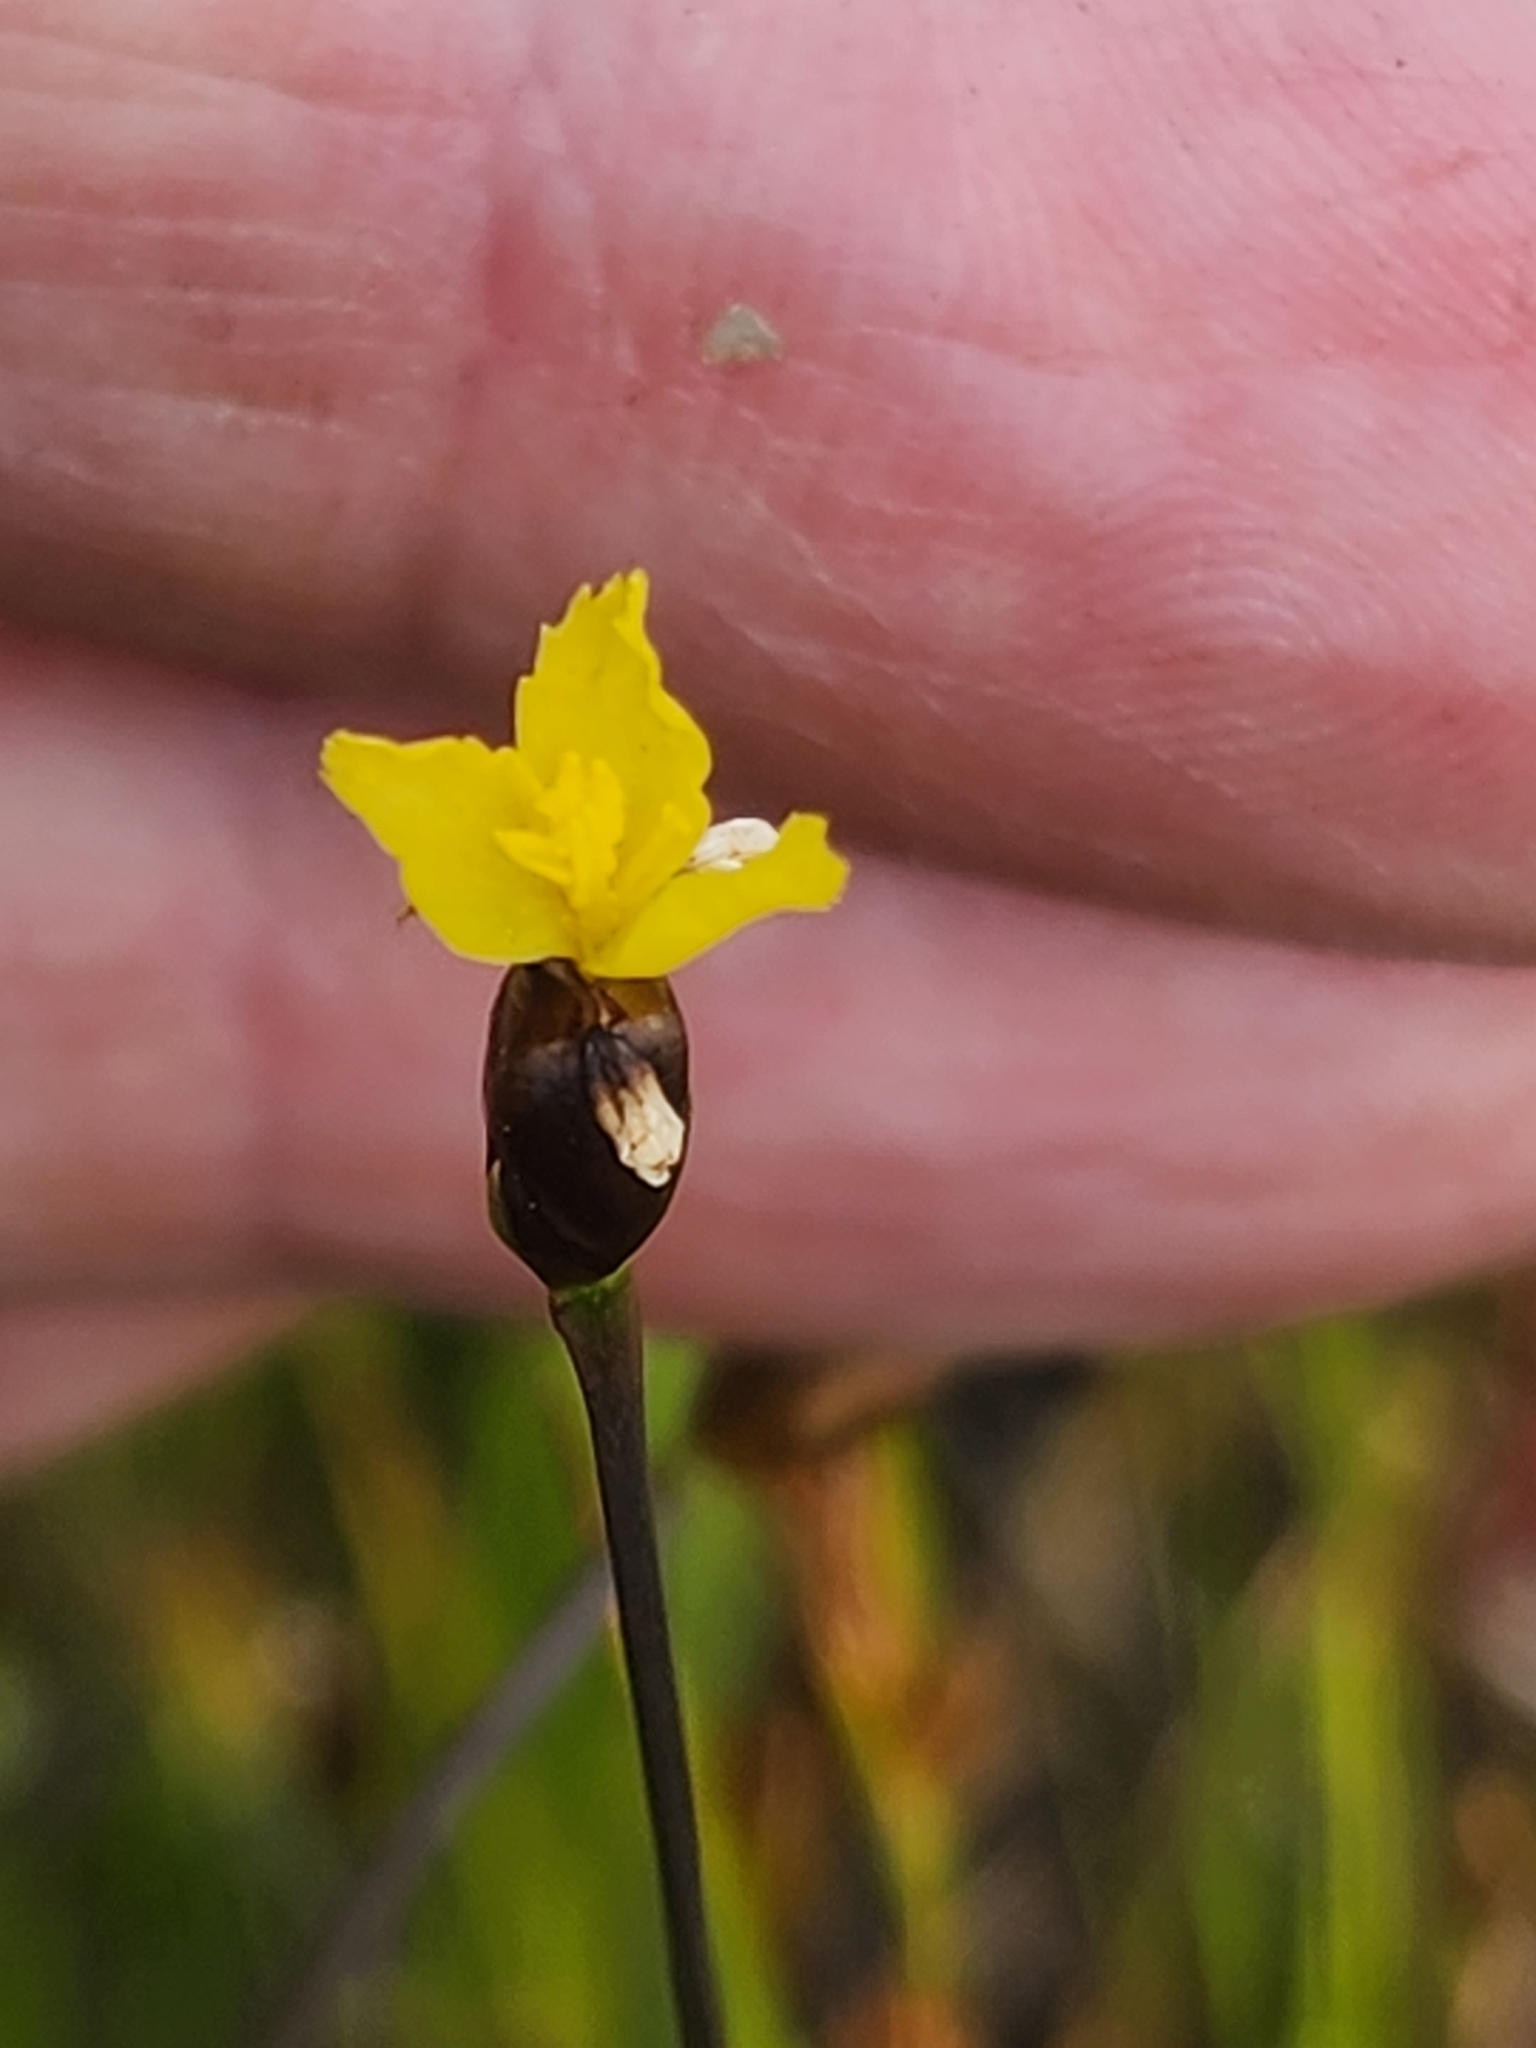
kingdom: Plantae
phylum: Tracheophyta
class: Liliopsida
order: Poales
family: Xyridaceae
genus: Xyris
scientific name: Xyris montana
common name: Northern yellow-eyed-grass
